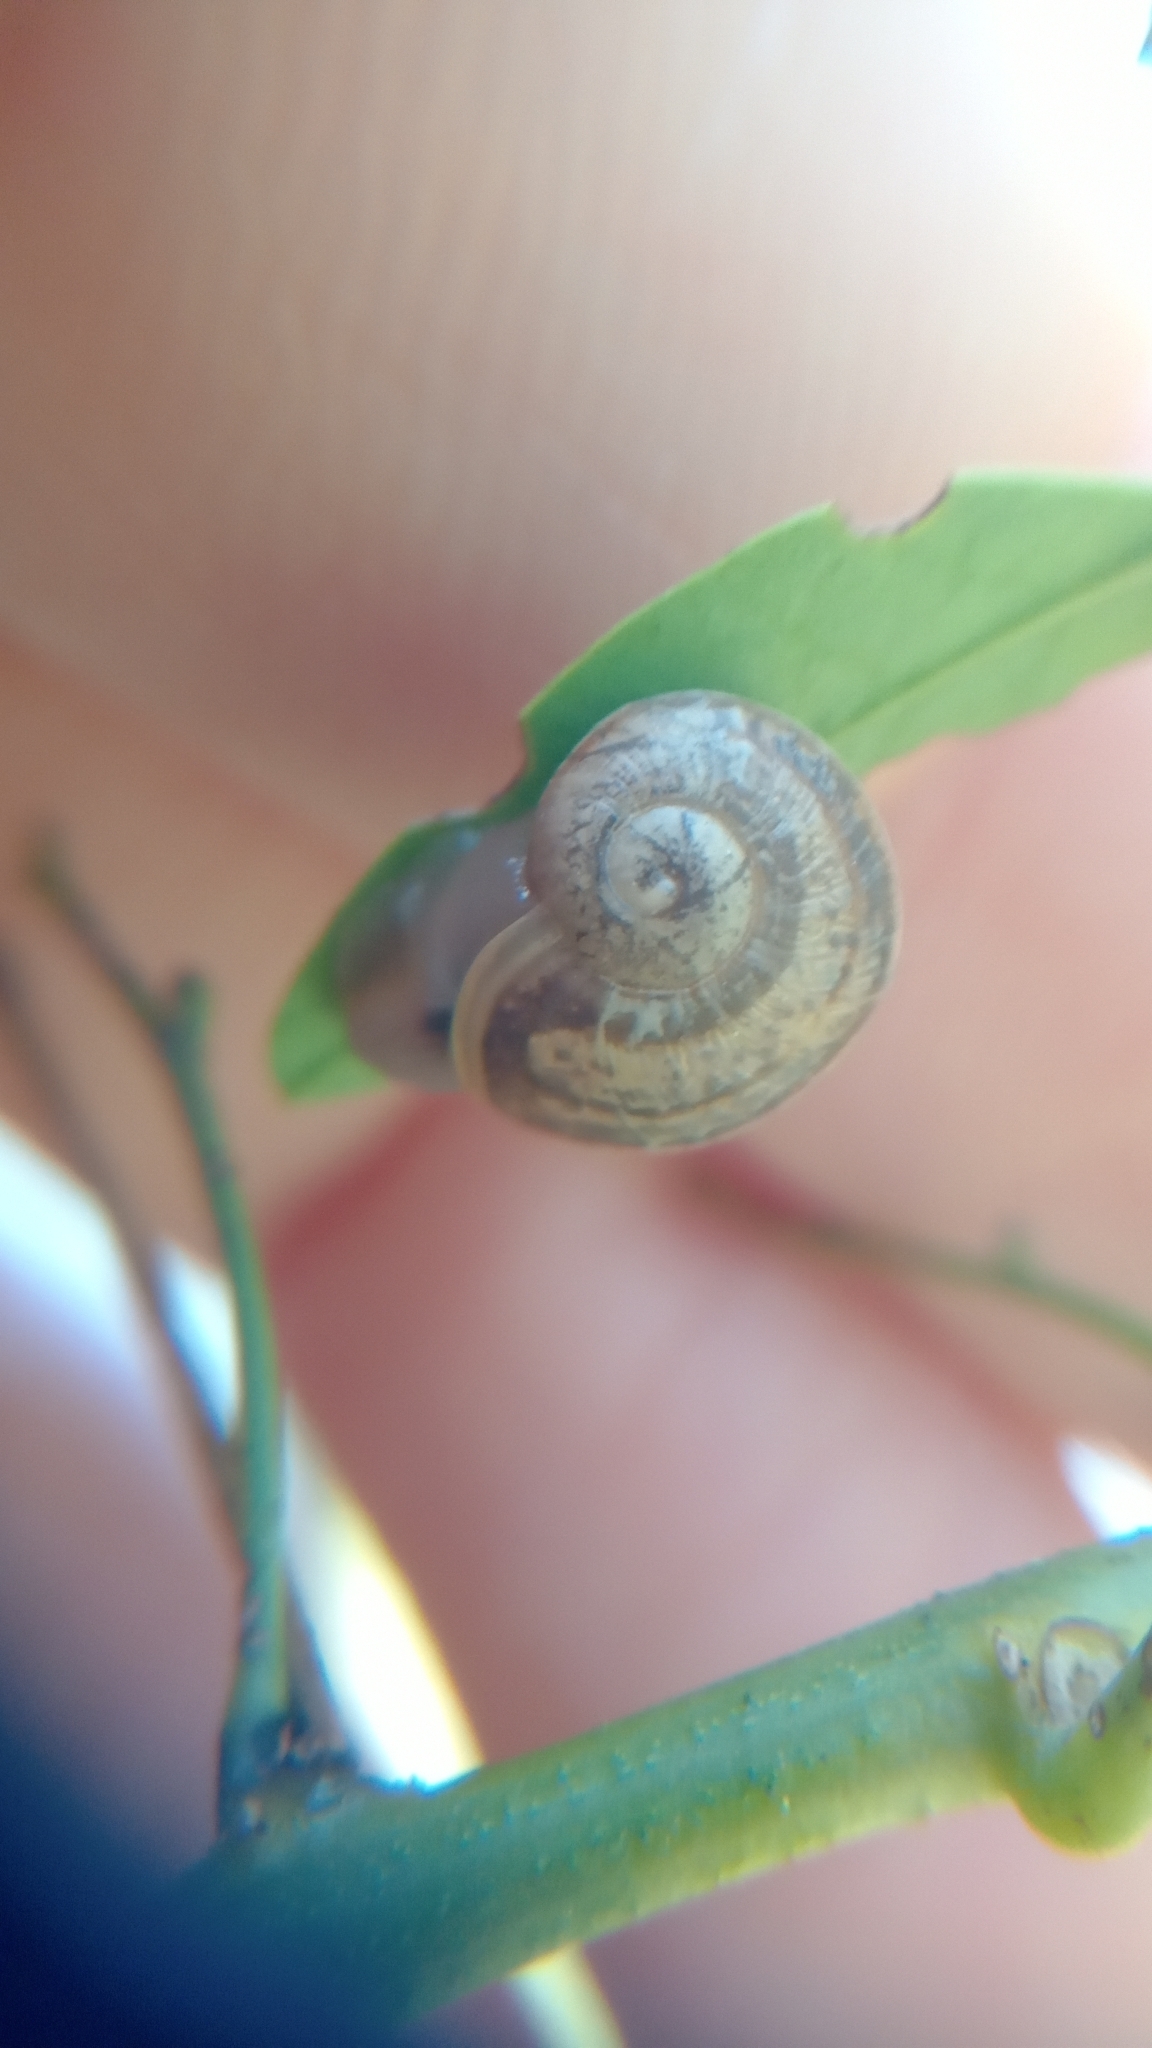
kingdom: Animalia
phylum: Mollusca
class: Gastropoda
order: Stylommatophora
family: Helicidae
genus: Cornu
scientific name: Cornu aspersum
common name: Brown garden snail
